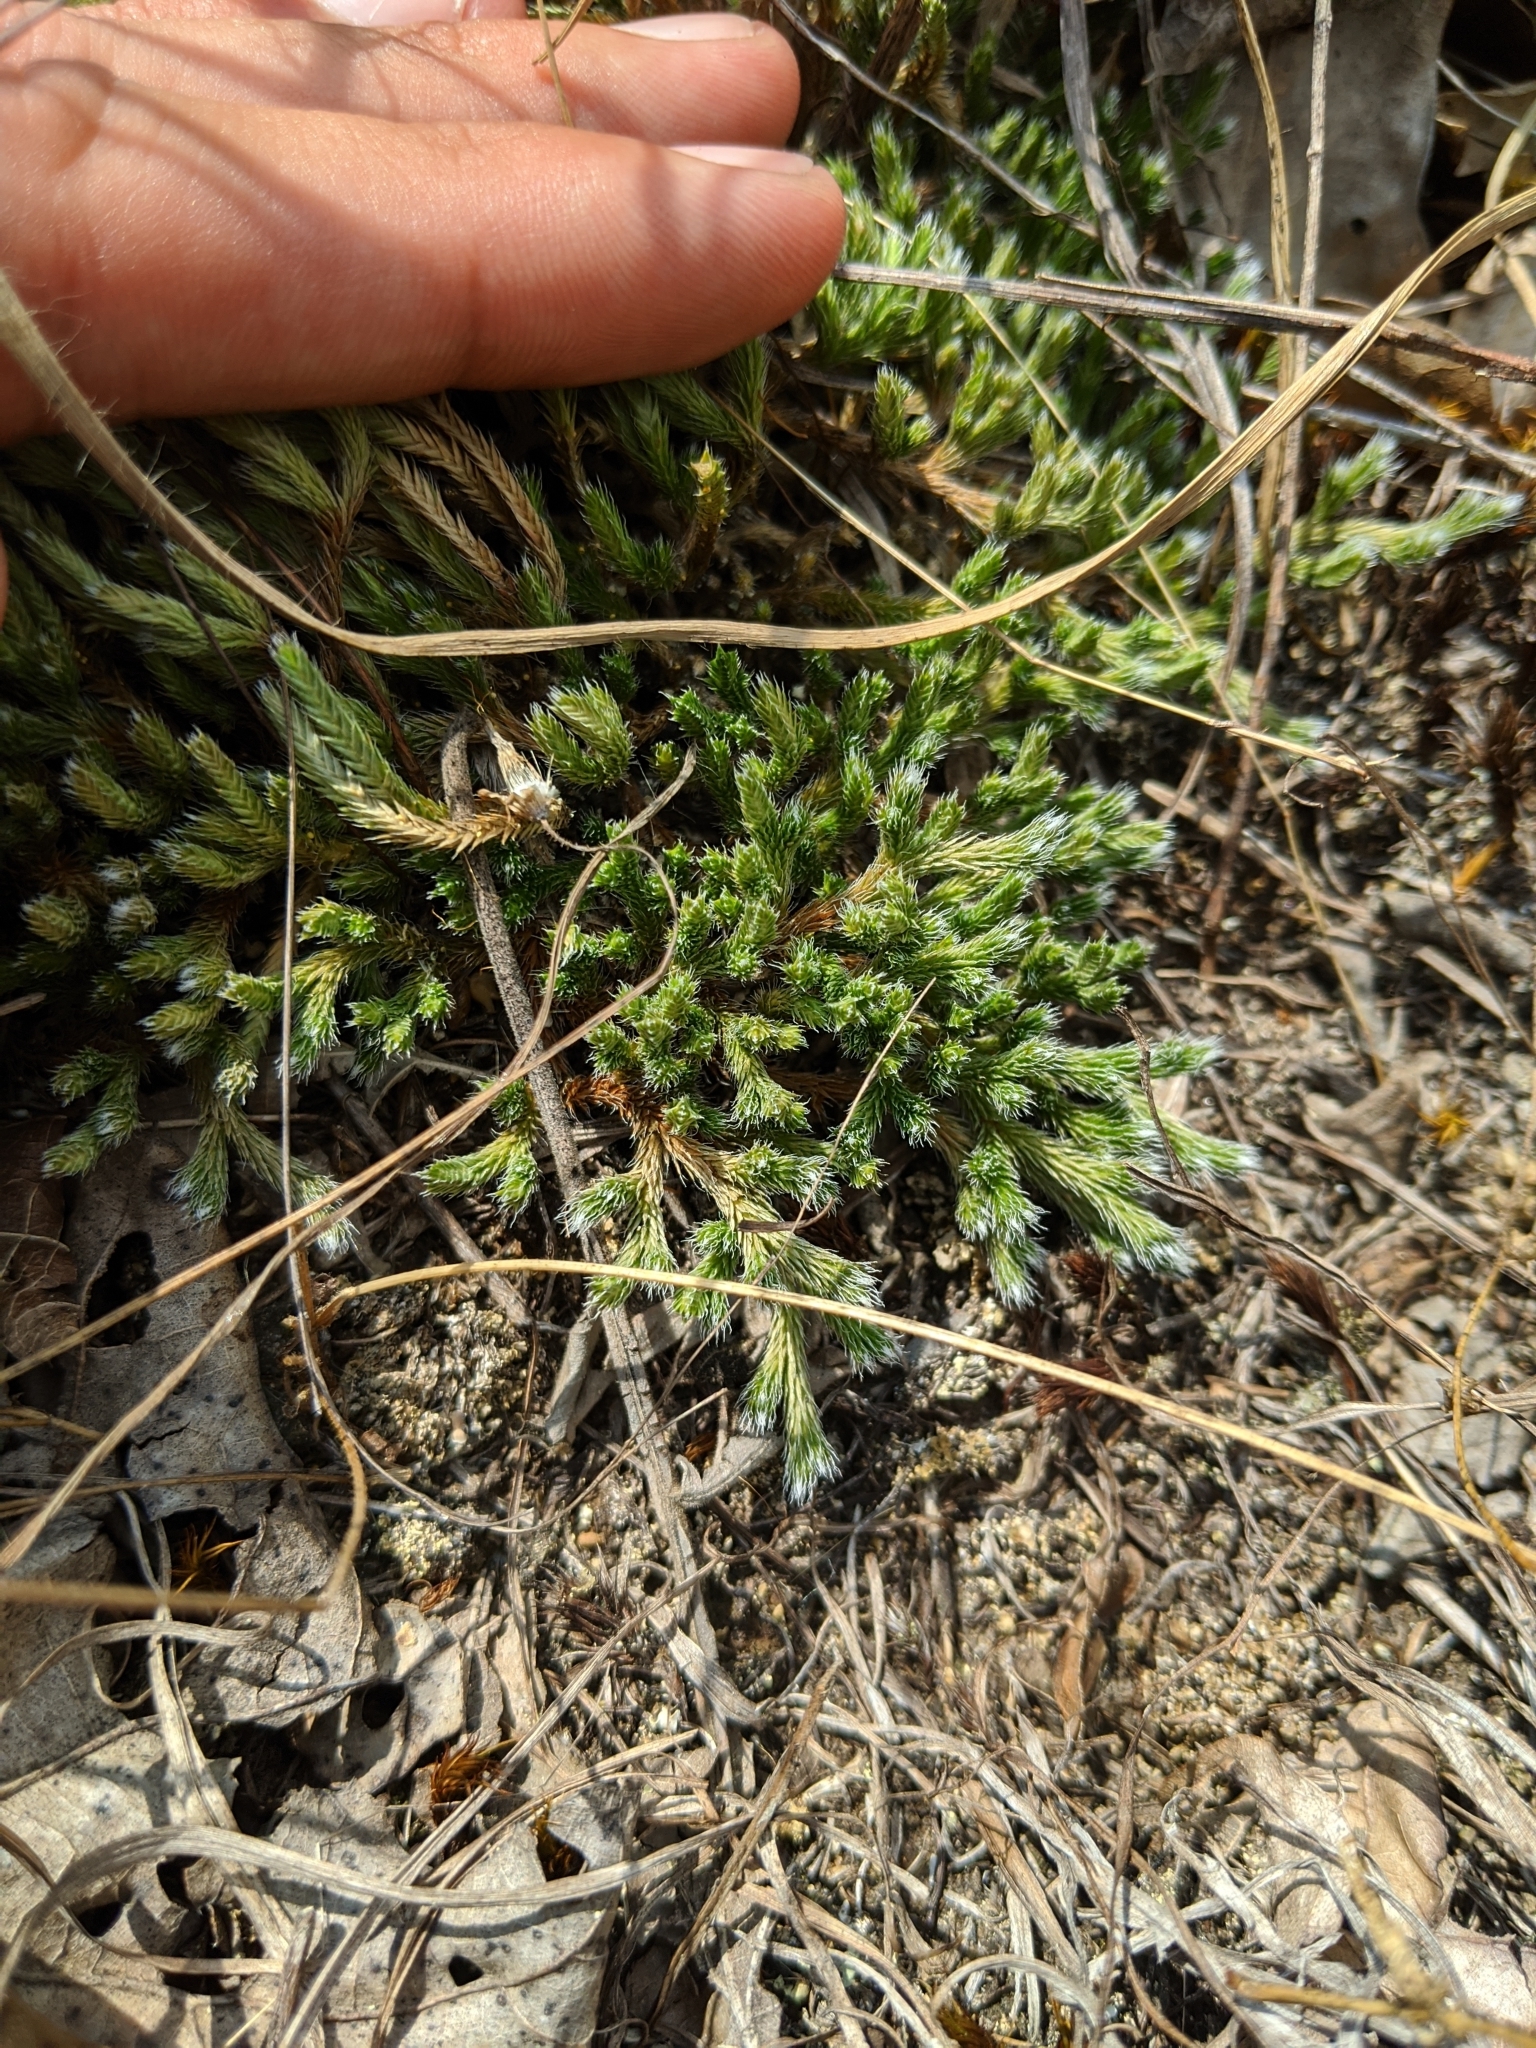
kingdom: Plantae
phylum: Tracheophyta
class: Lycopodiopsida
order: Selaginellales
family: Selaginellaceae
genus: Selaginella
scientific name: Selaginella rupestris
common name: Dwarf spikemoss
